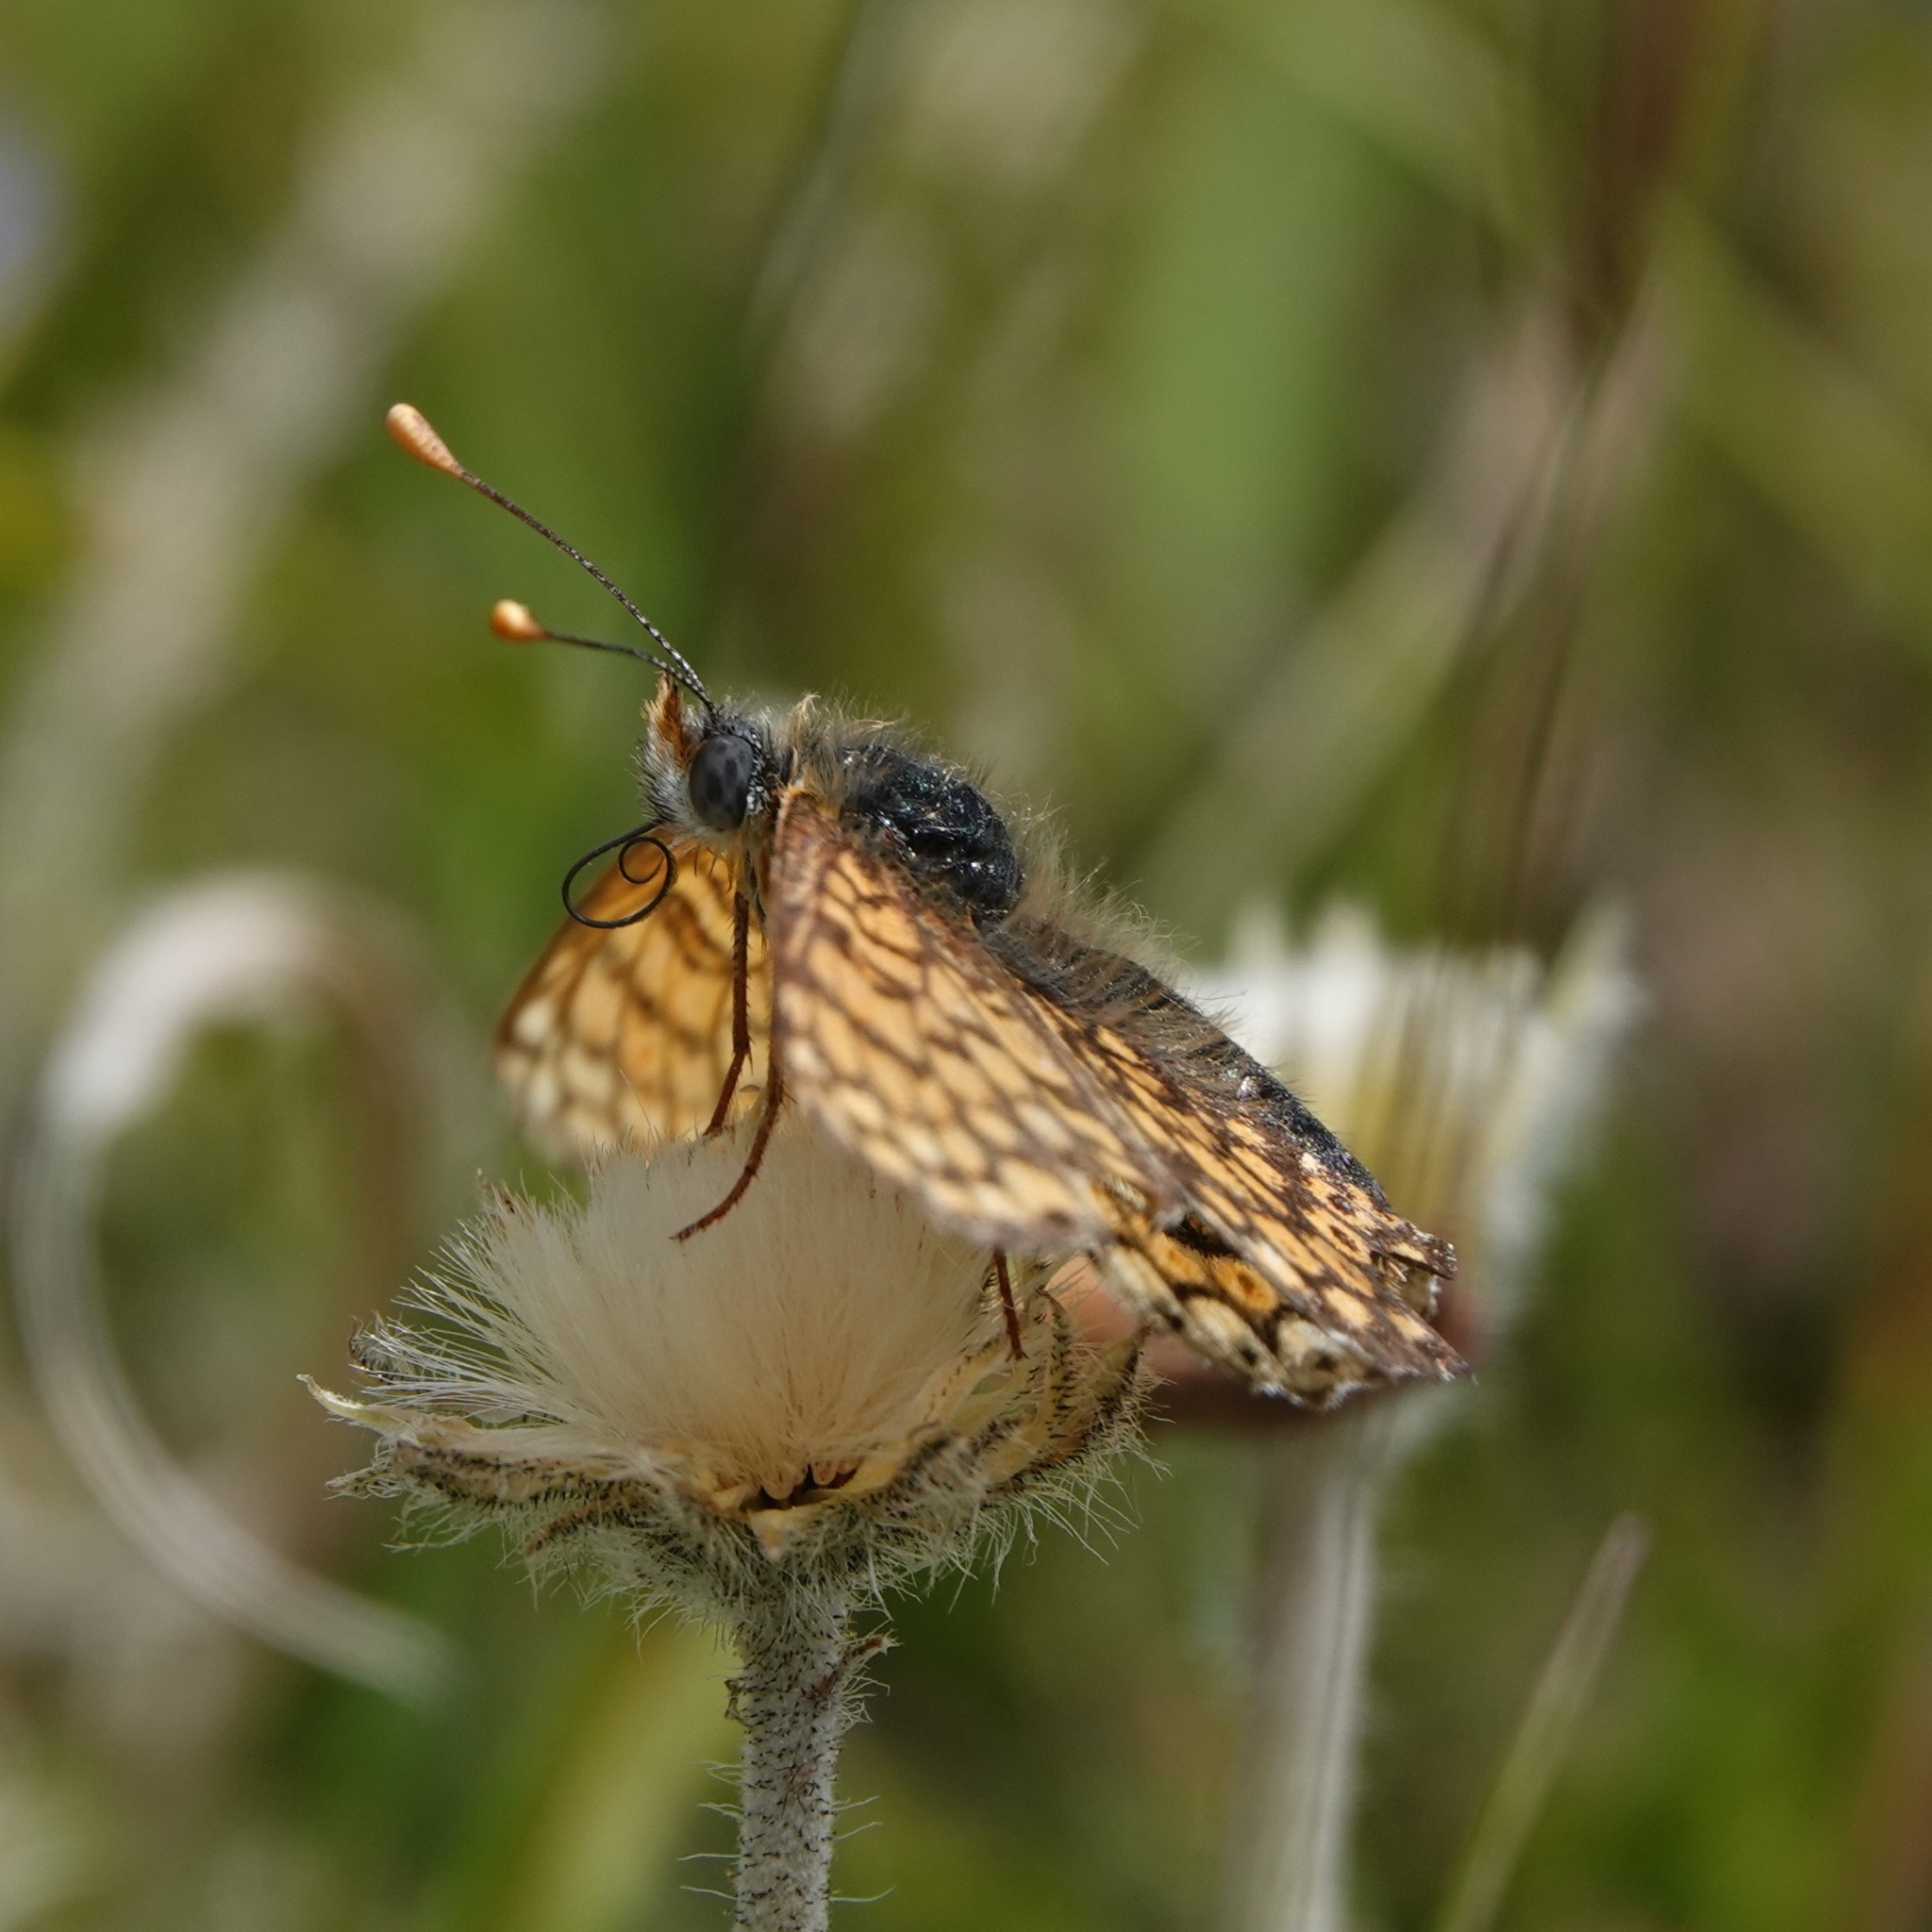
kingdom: Animalia
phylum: Arthropoda
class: Insecta
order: Lepidoptera
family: Nymphalidae
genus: Melitaea
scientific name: Melitaea cinxia
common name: Glanville fritillary
